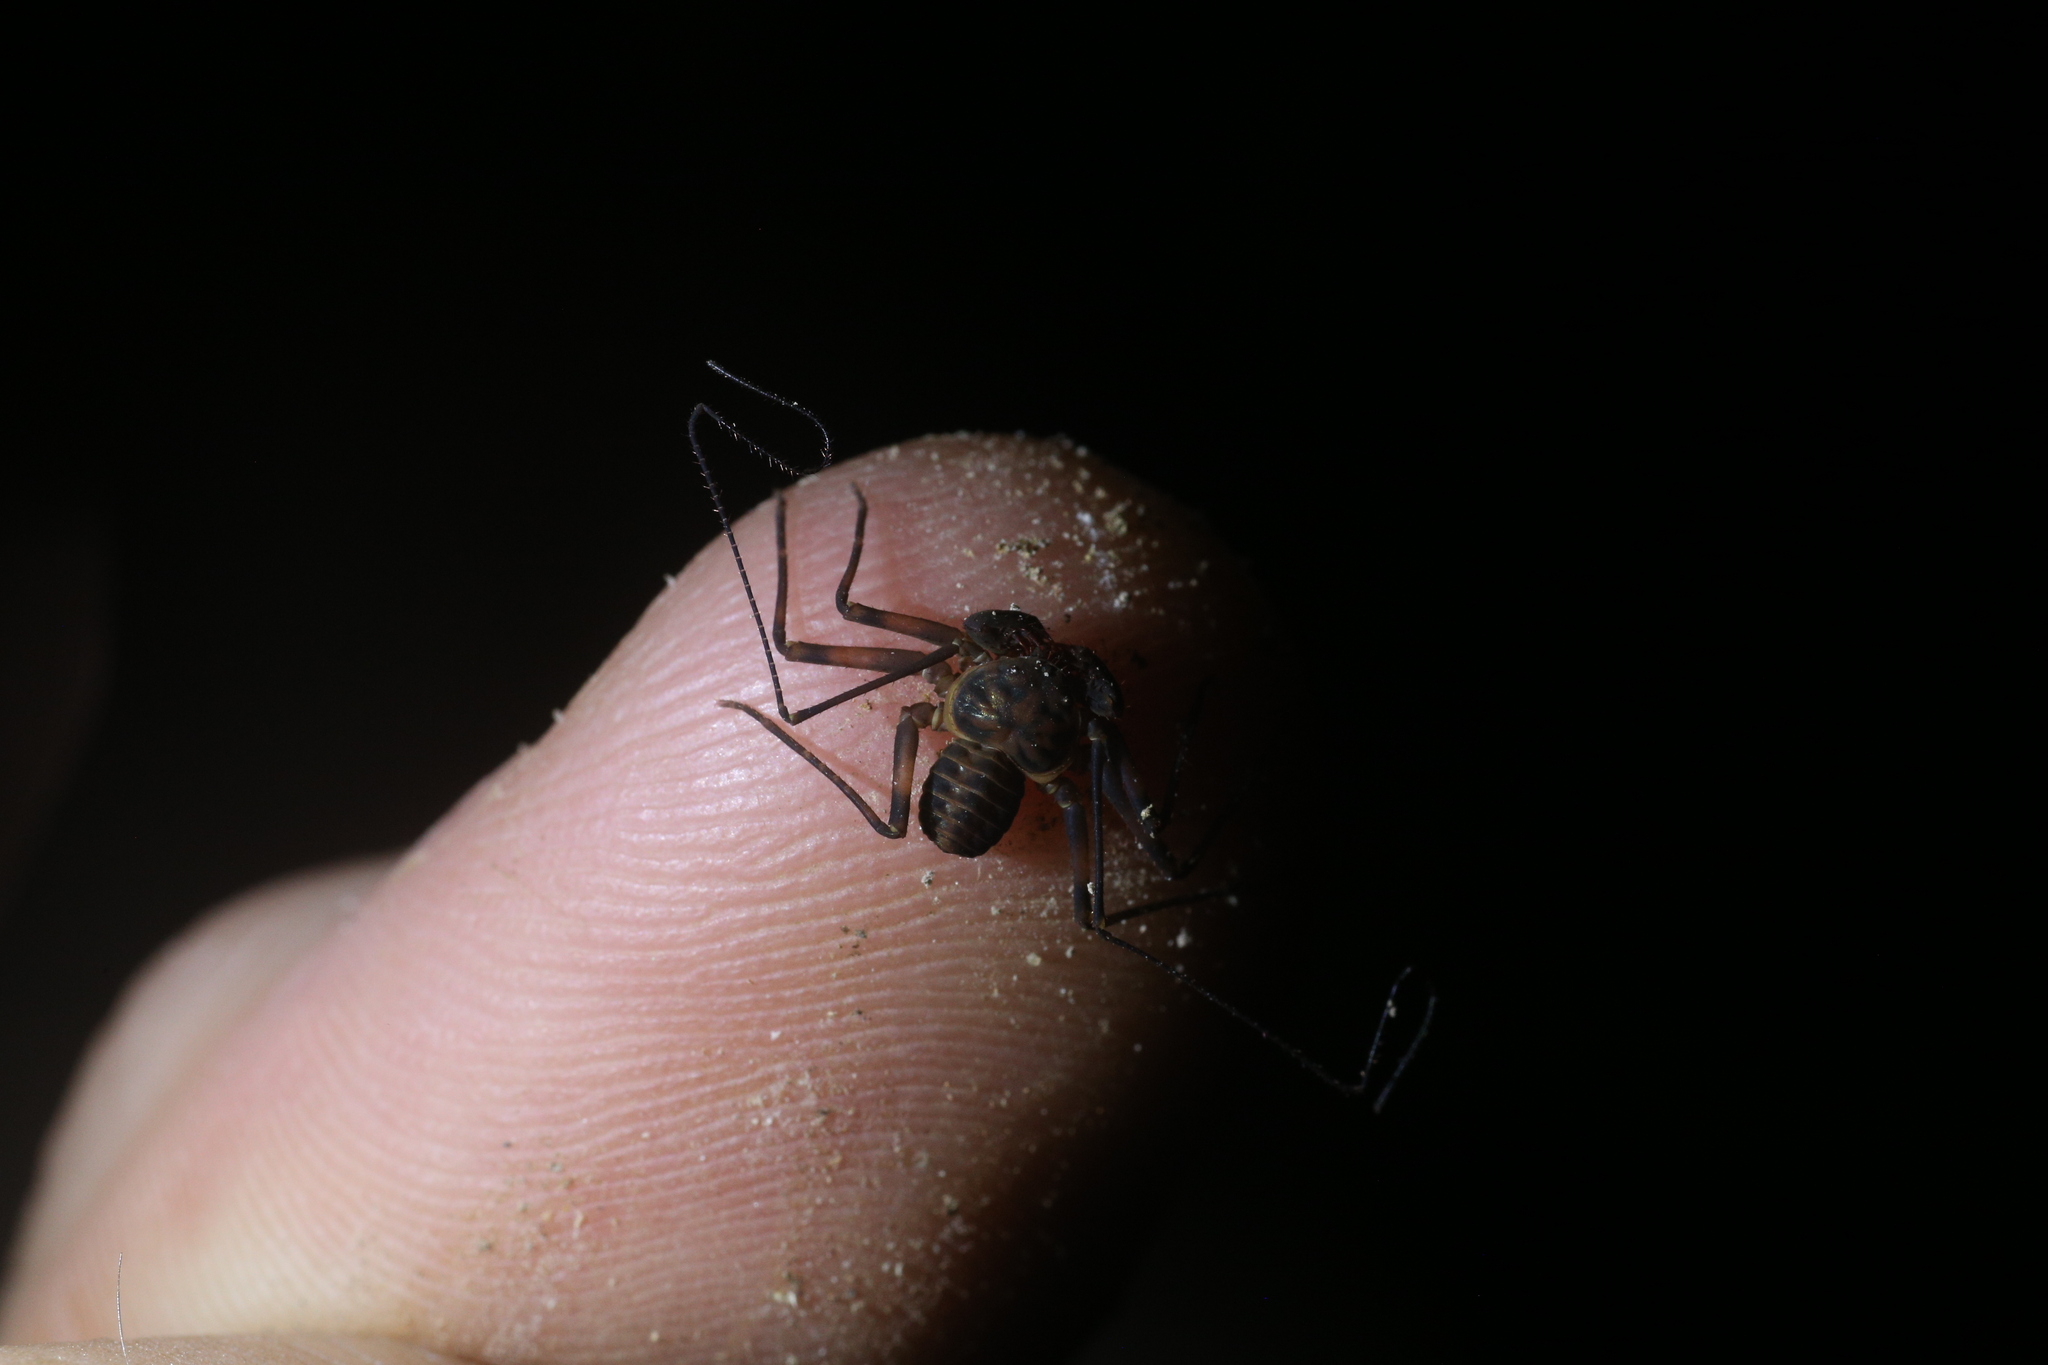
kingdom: Animalia
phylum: Arthropoda
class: Arachnida
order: Amblypygi
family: Charinidae
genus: Charinus
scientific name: Charinus pescotti
